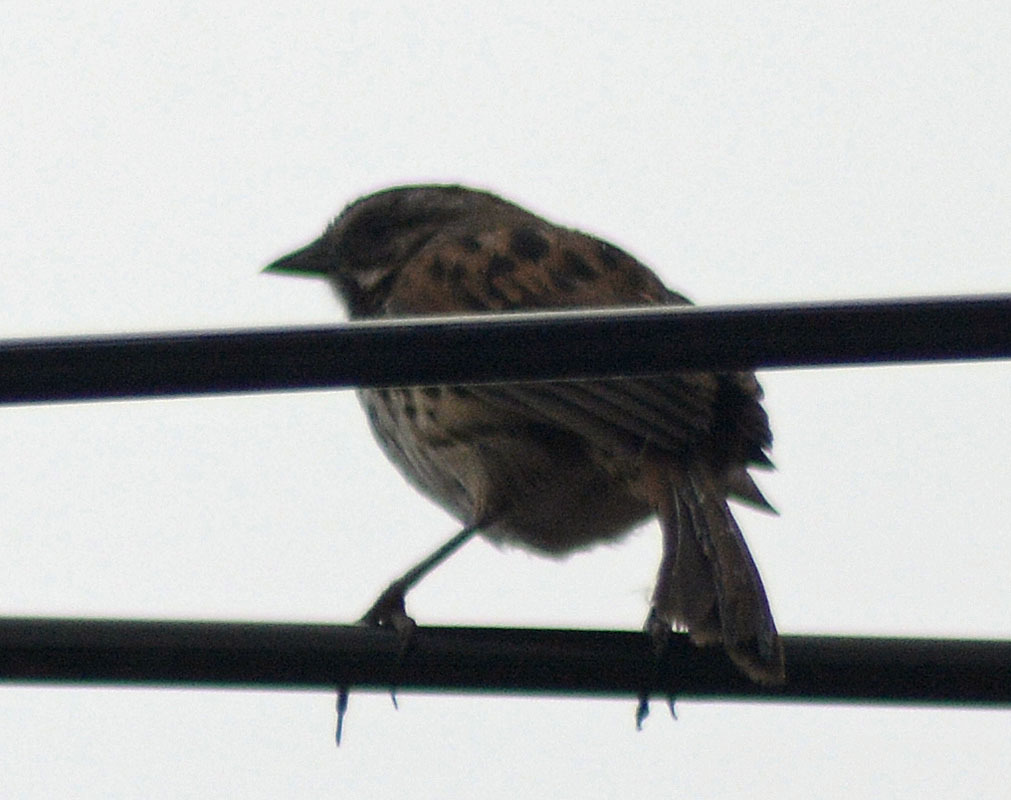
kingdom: Animalia
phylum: Chordata
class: Aves
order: Passeriformes
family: Passerellidae
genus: Melospiza
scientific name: Melospiza melodia
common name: Song sparrow
